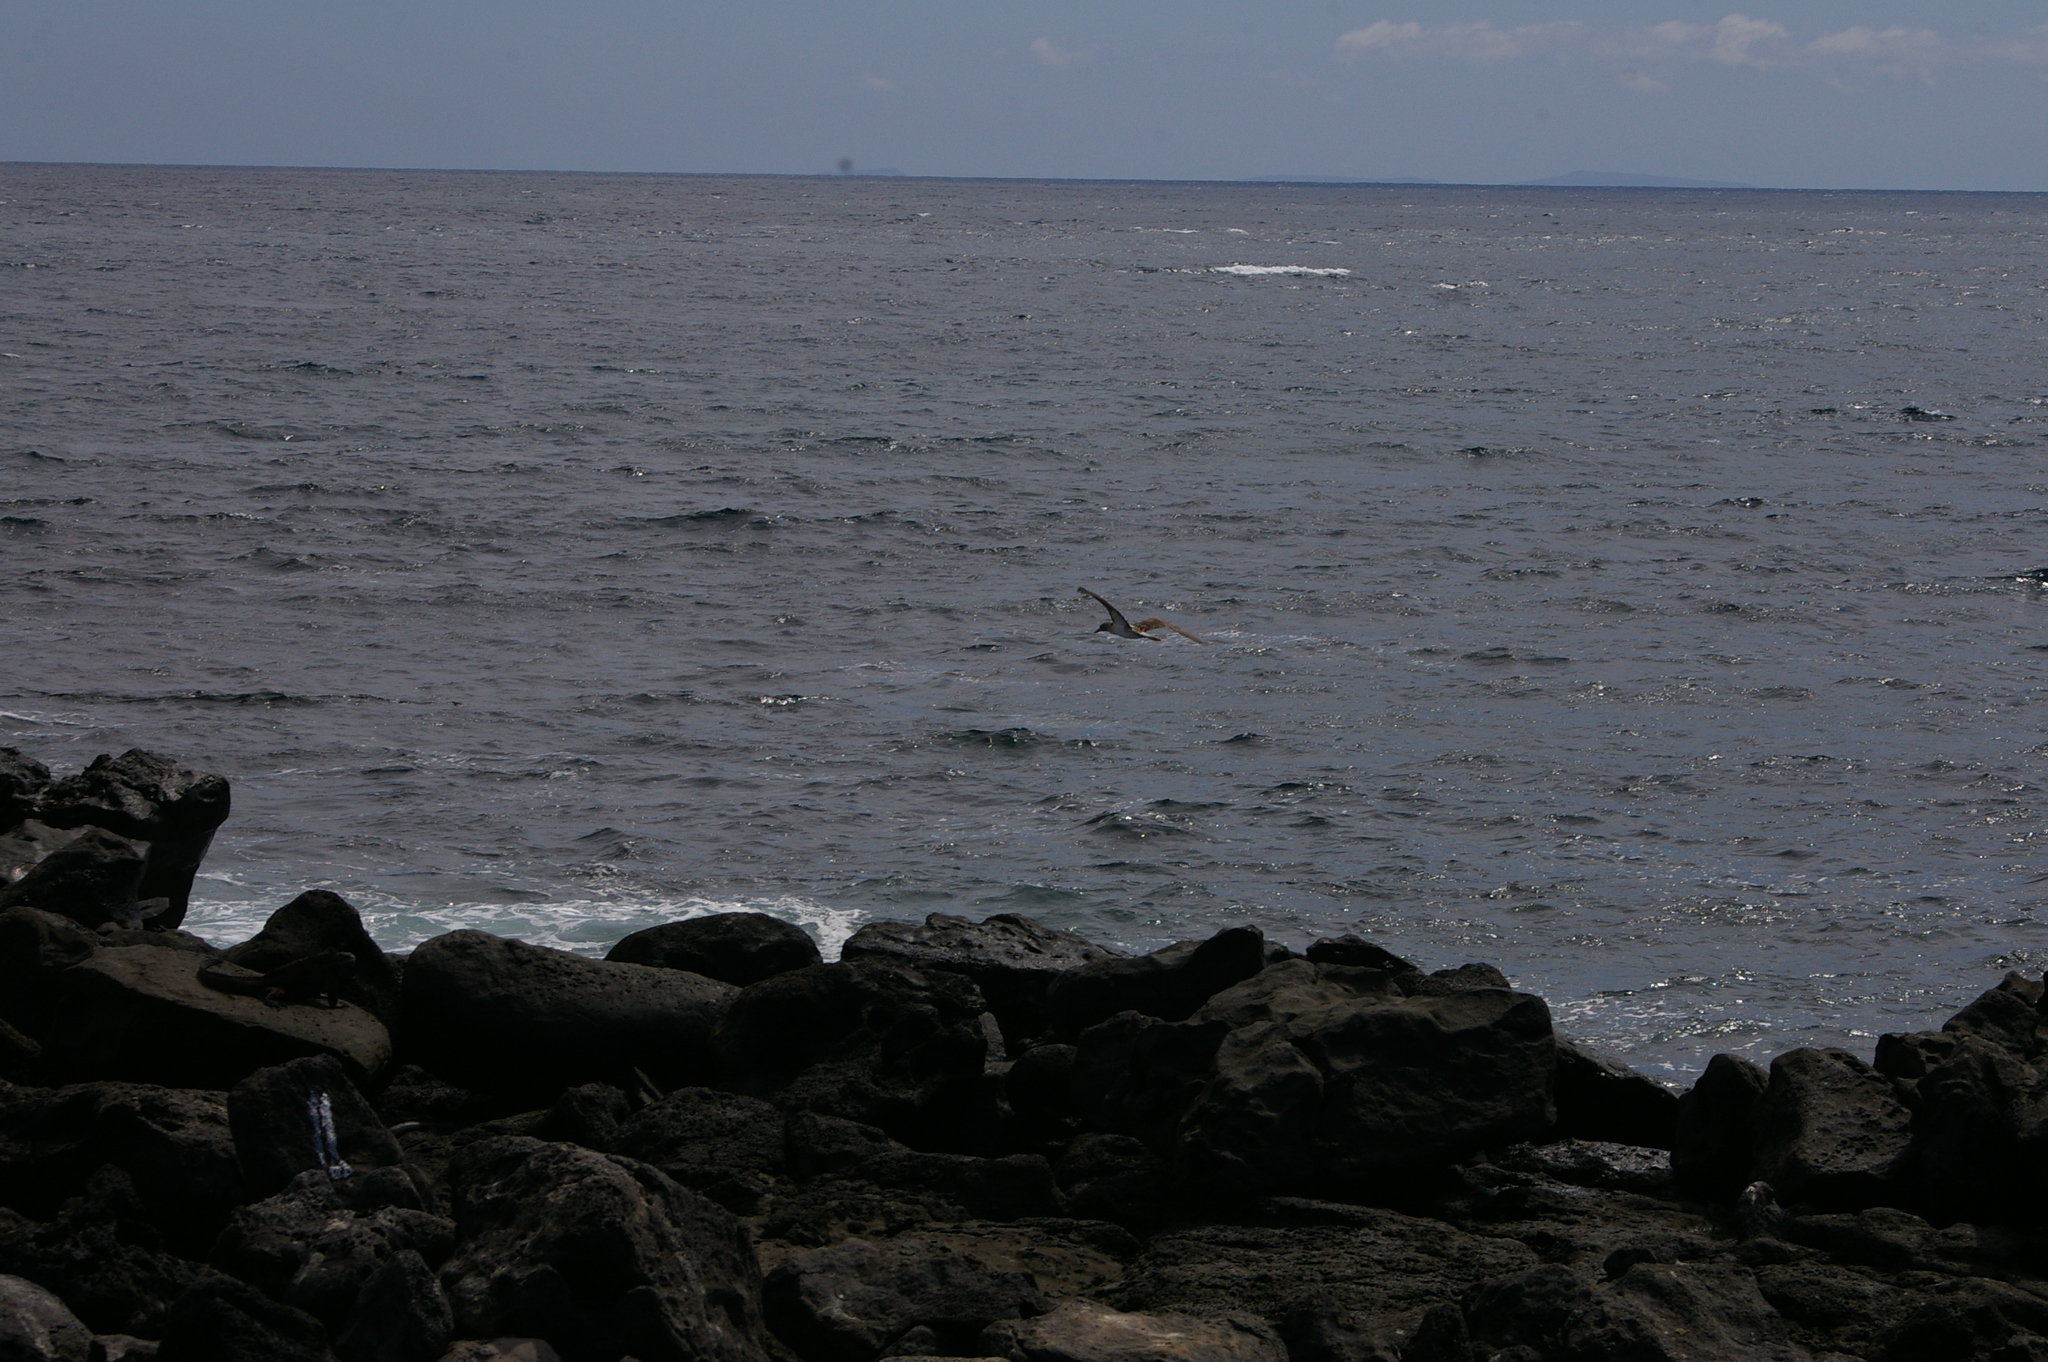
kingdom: Animalia
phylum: Chordata
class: Aves
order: Suliformes
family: Sulidae
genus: Sula
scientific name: Sula nebouxii
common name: Blue-footed booby
